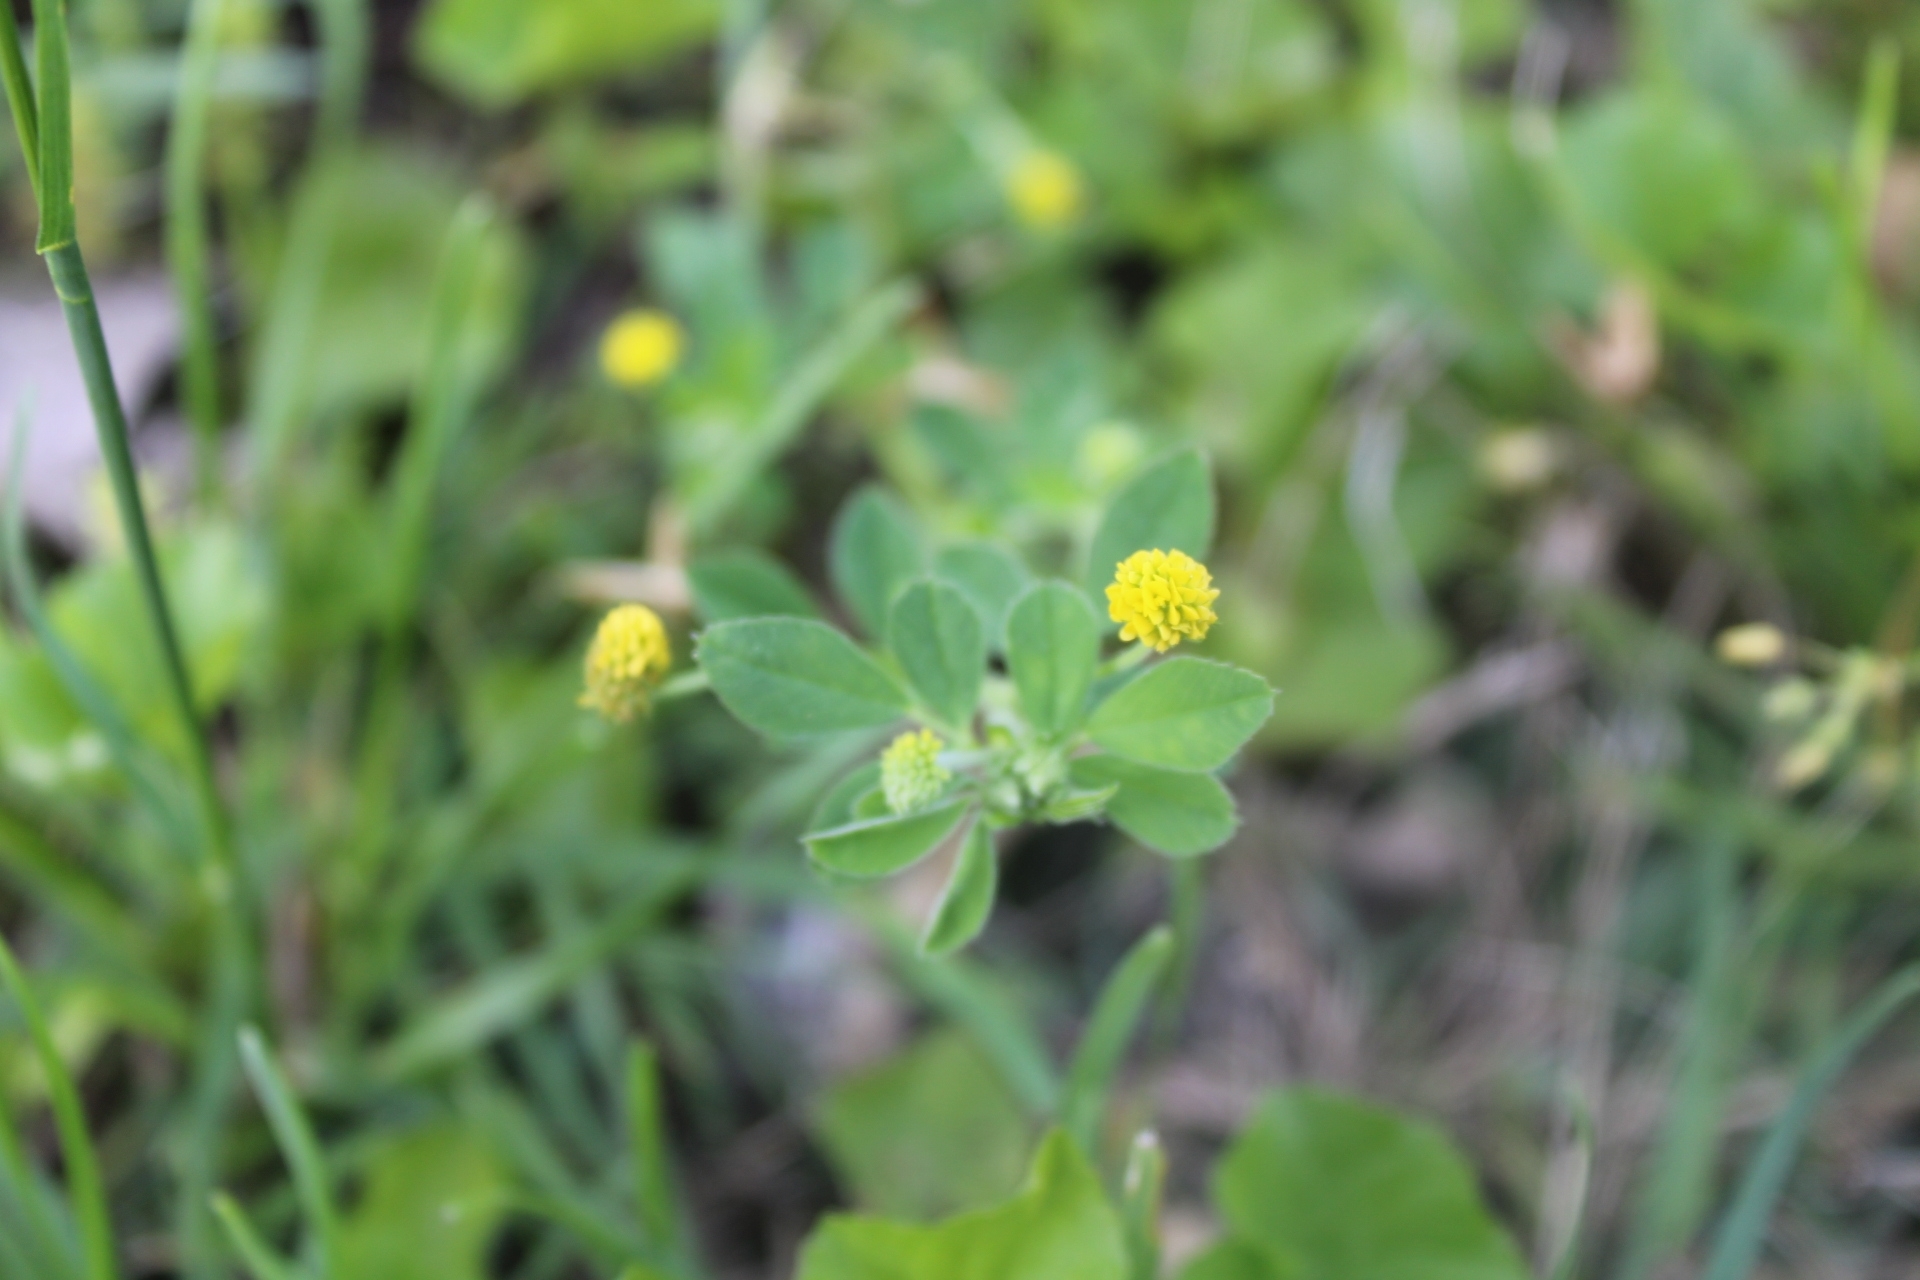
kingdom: Plantae
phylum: Tracheophyta
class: Magnoliopsida
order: Fabales
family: Fabaceae
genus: Medicago
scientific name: Medicago lupulina
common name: Black medick
